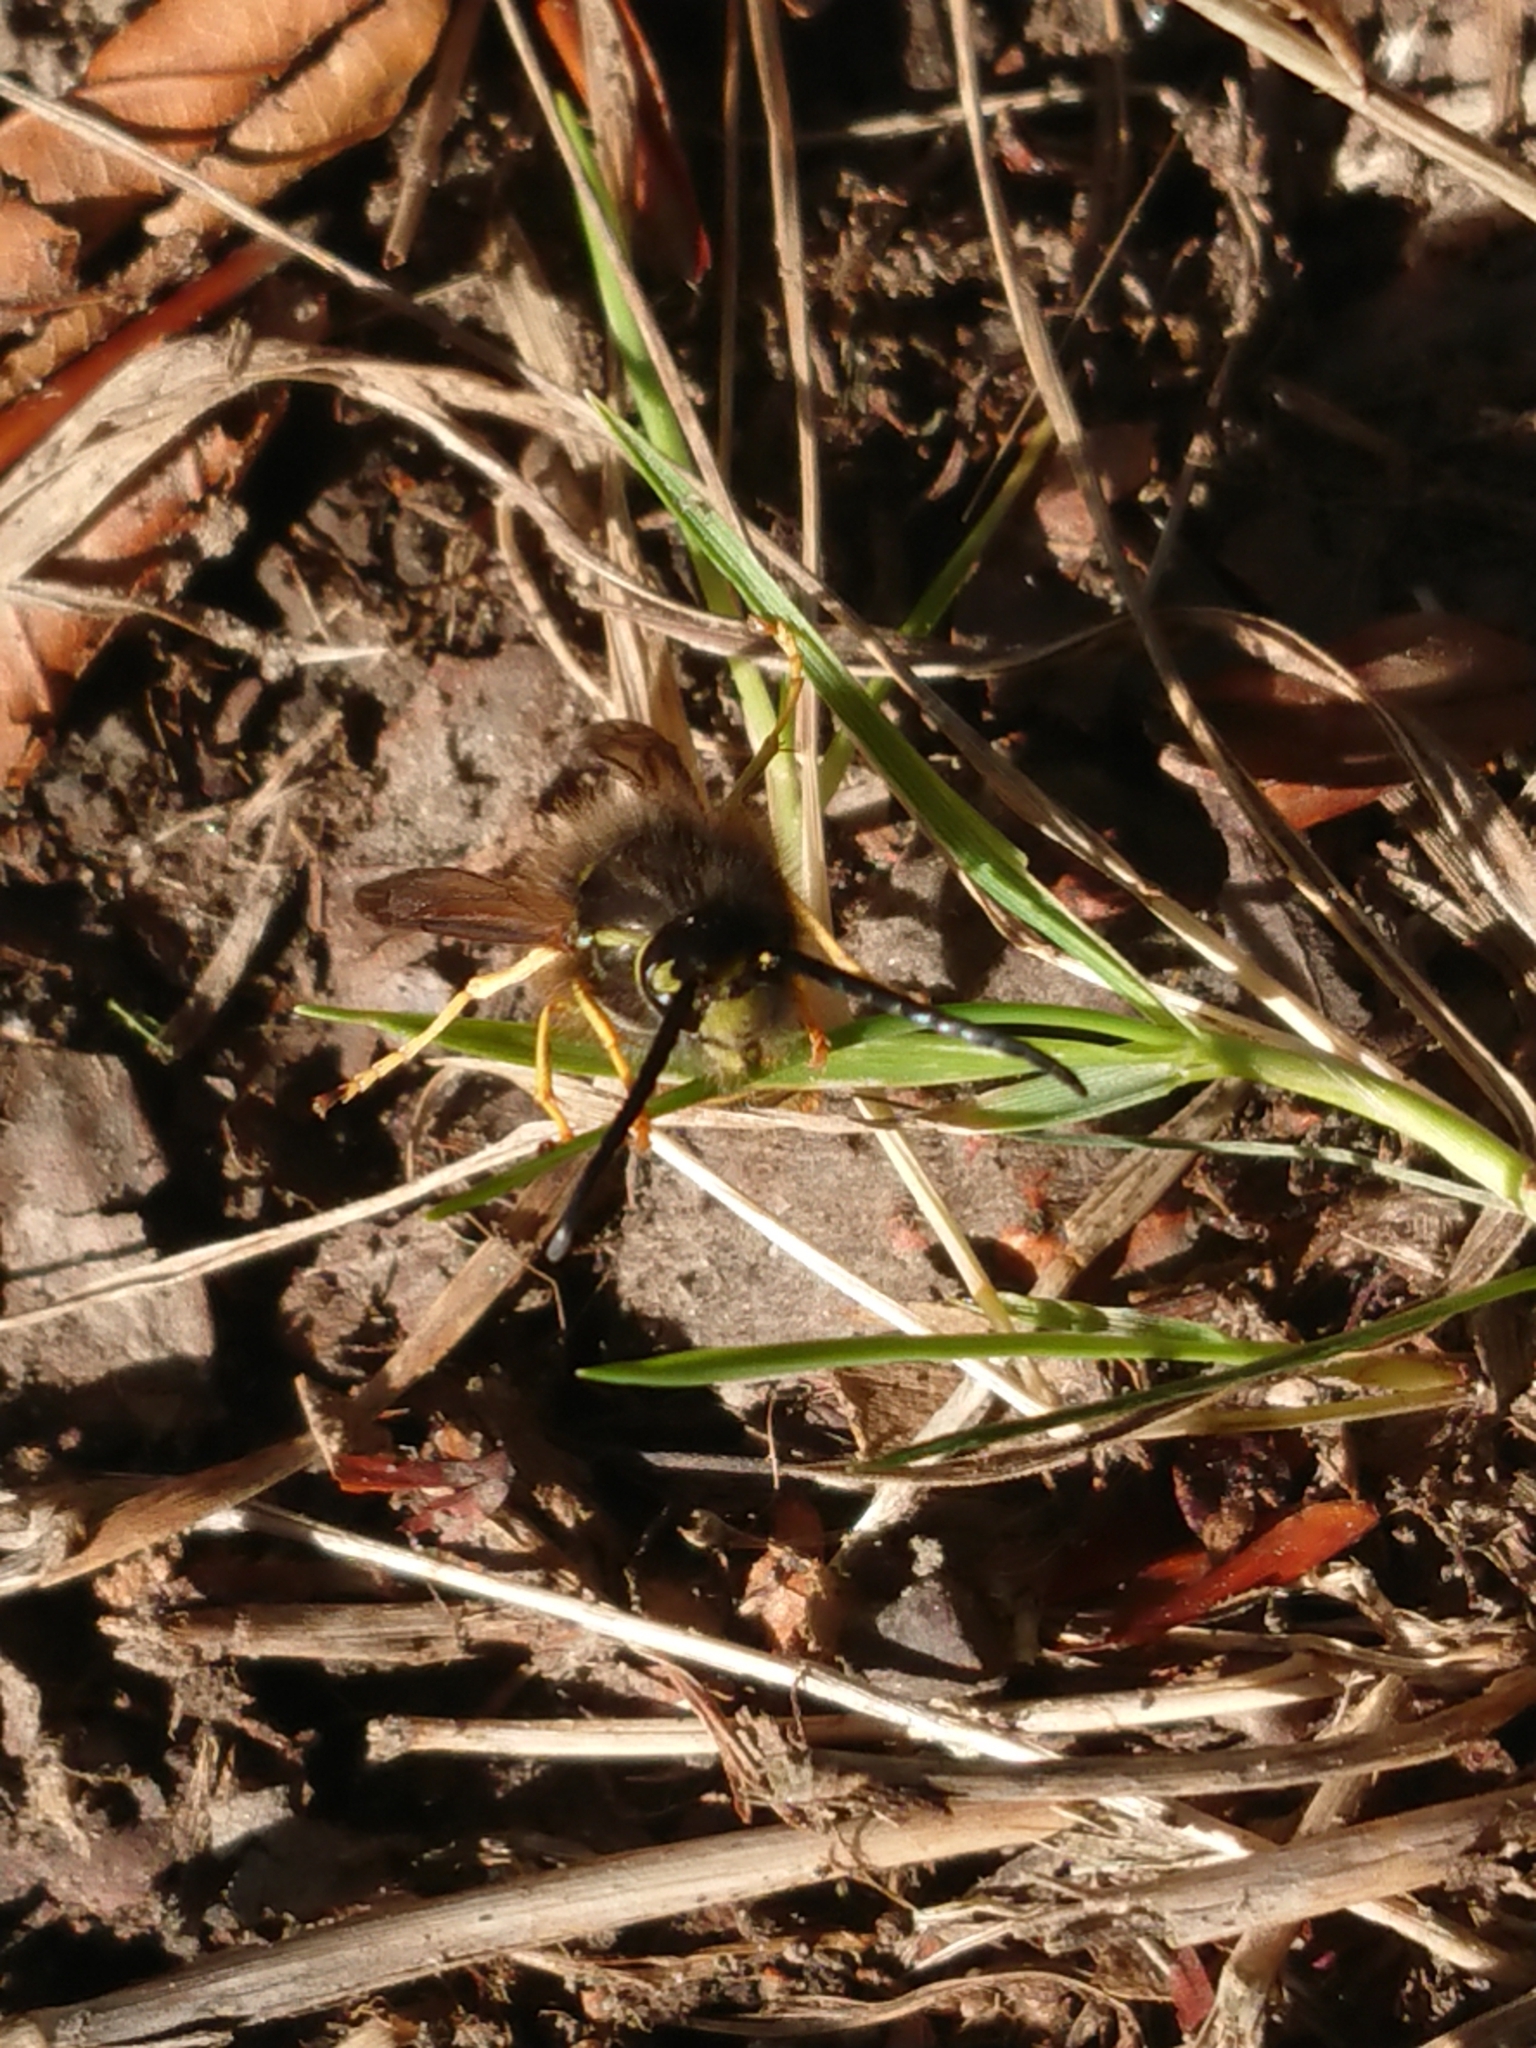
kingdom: Animalia
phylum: Arthropoda
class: Insecta
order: Hymenoptera
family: Vespidae
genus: Vespula
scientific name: Vespula vulgaris
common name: Common wasp
